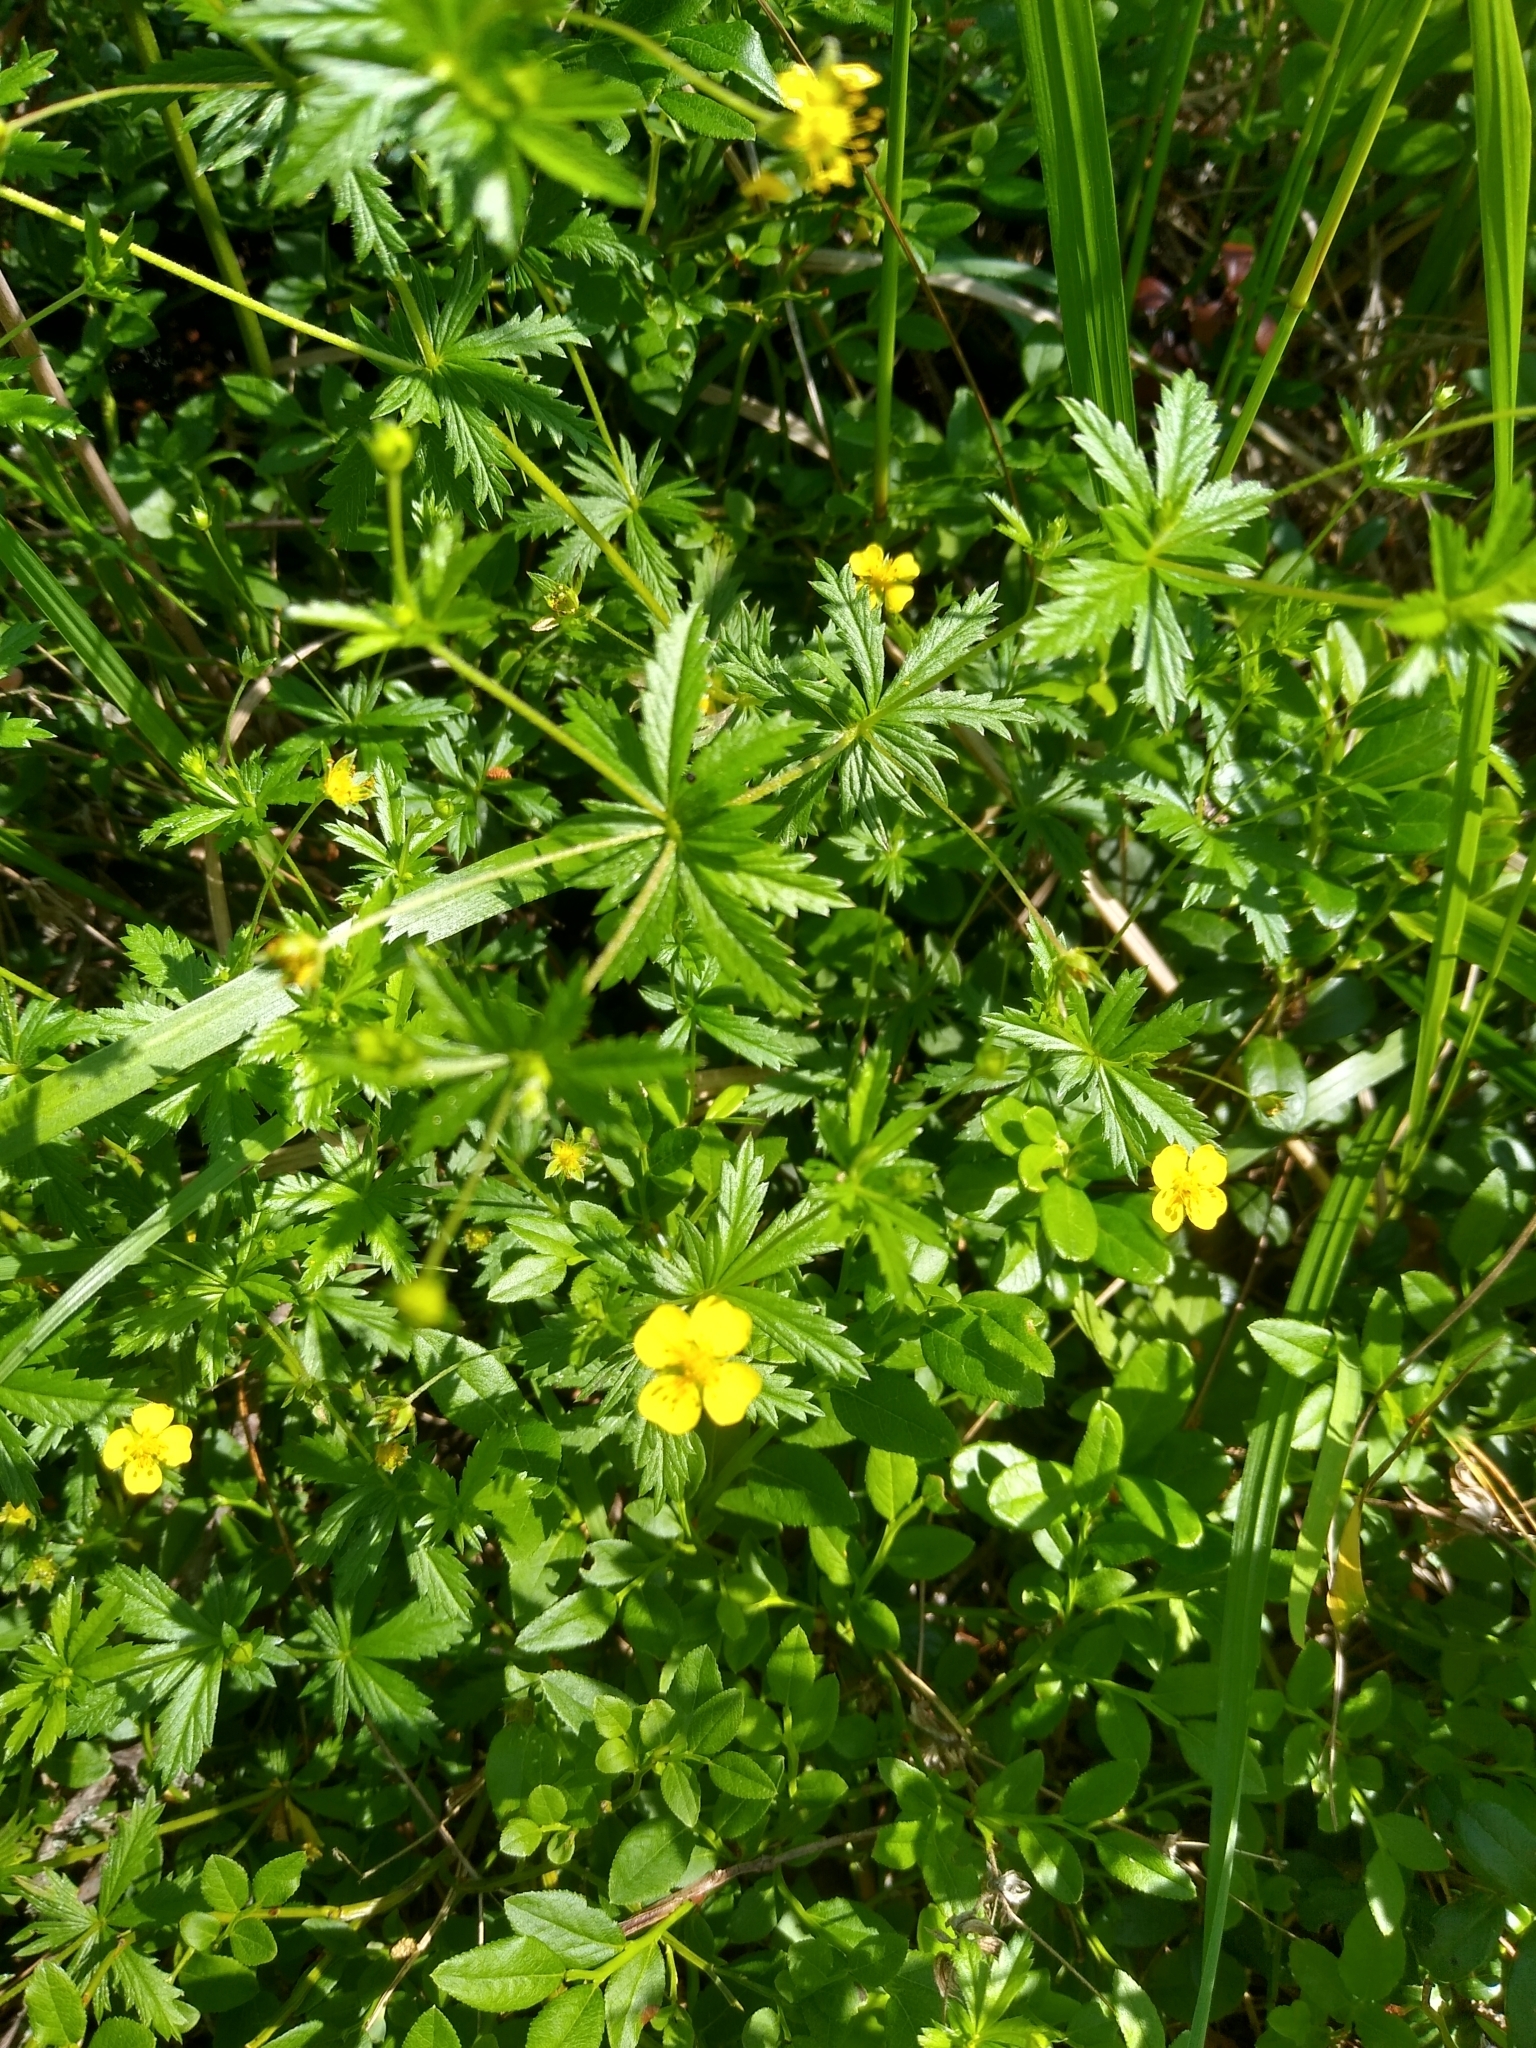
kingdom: Plantae
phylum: Tracheophyta
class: Magnoliopsida
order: Rosales
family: Rosaceae
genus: Potentilla
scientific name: Potentilla erecta
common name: Tormentil
